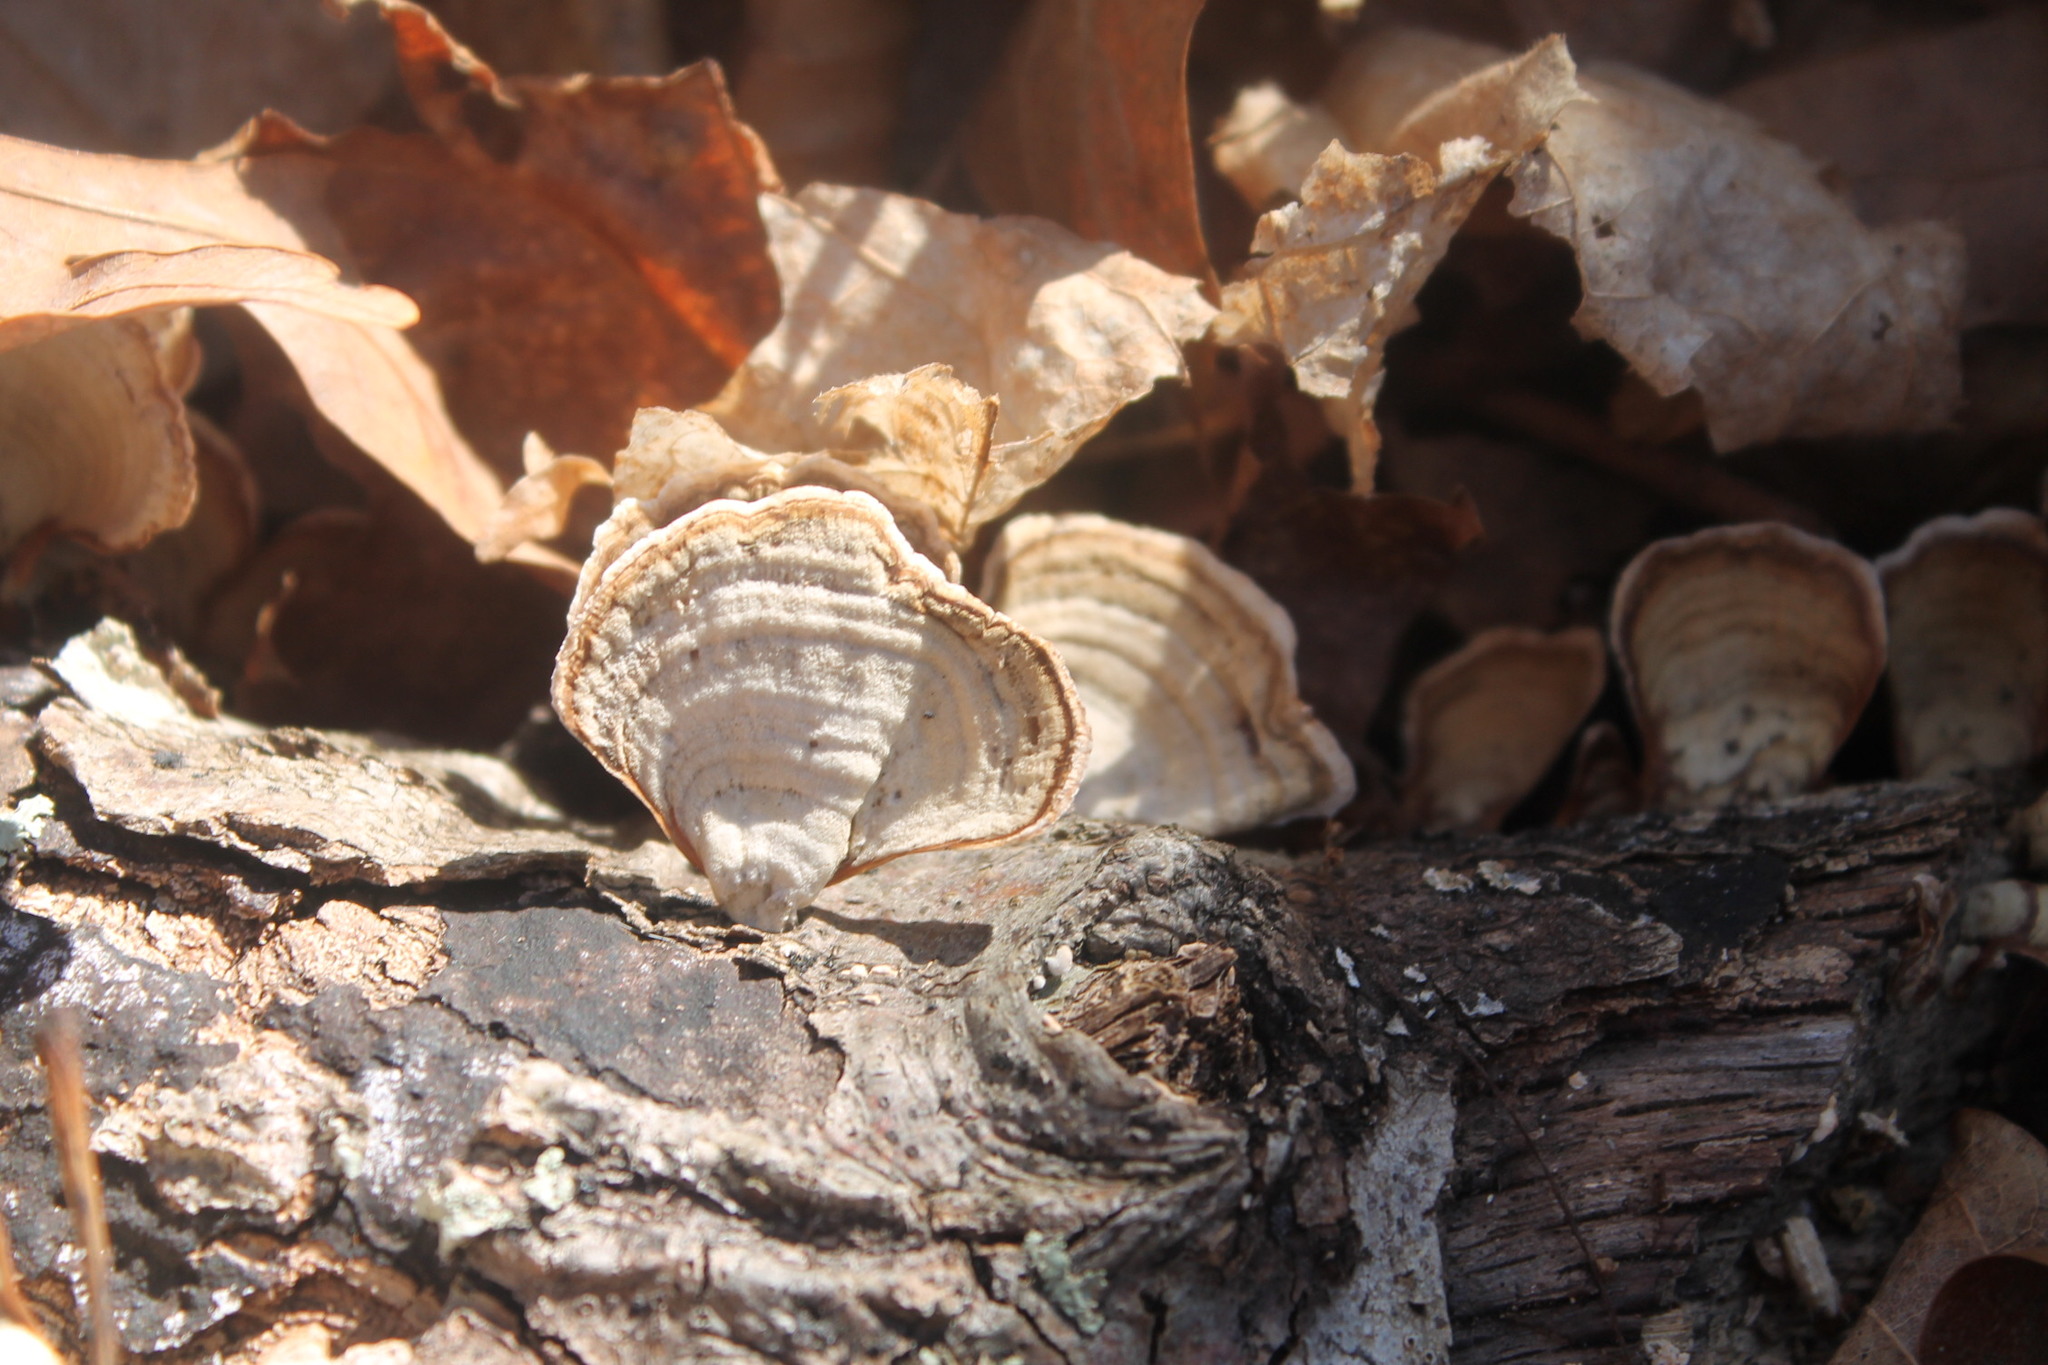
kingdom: Fungi
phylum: Basidiomycota
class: Agaricomycetes
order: Russulales
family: Stereaceae
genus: Stereum
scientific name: Stereum lobatum
